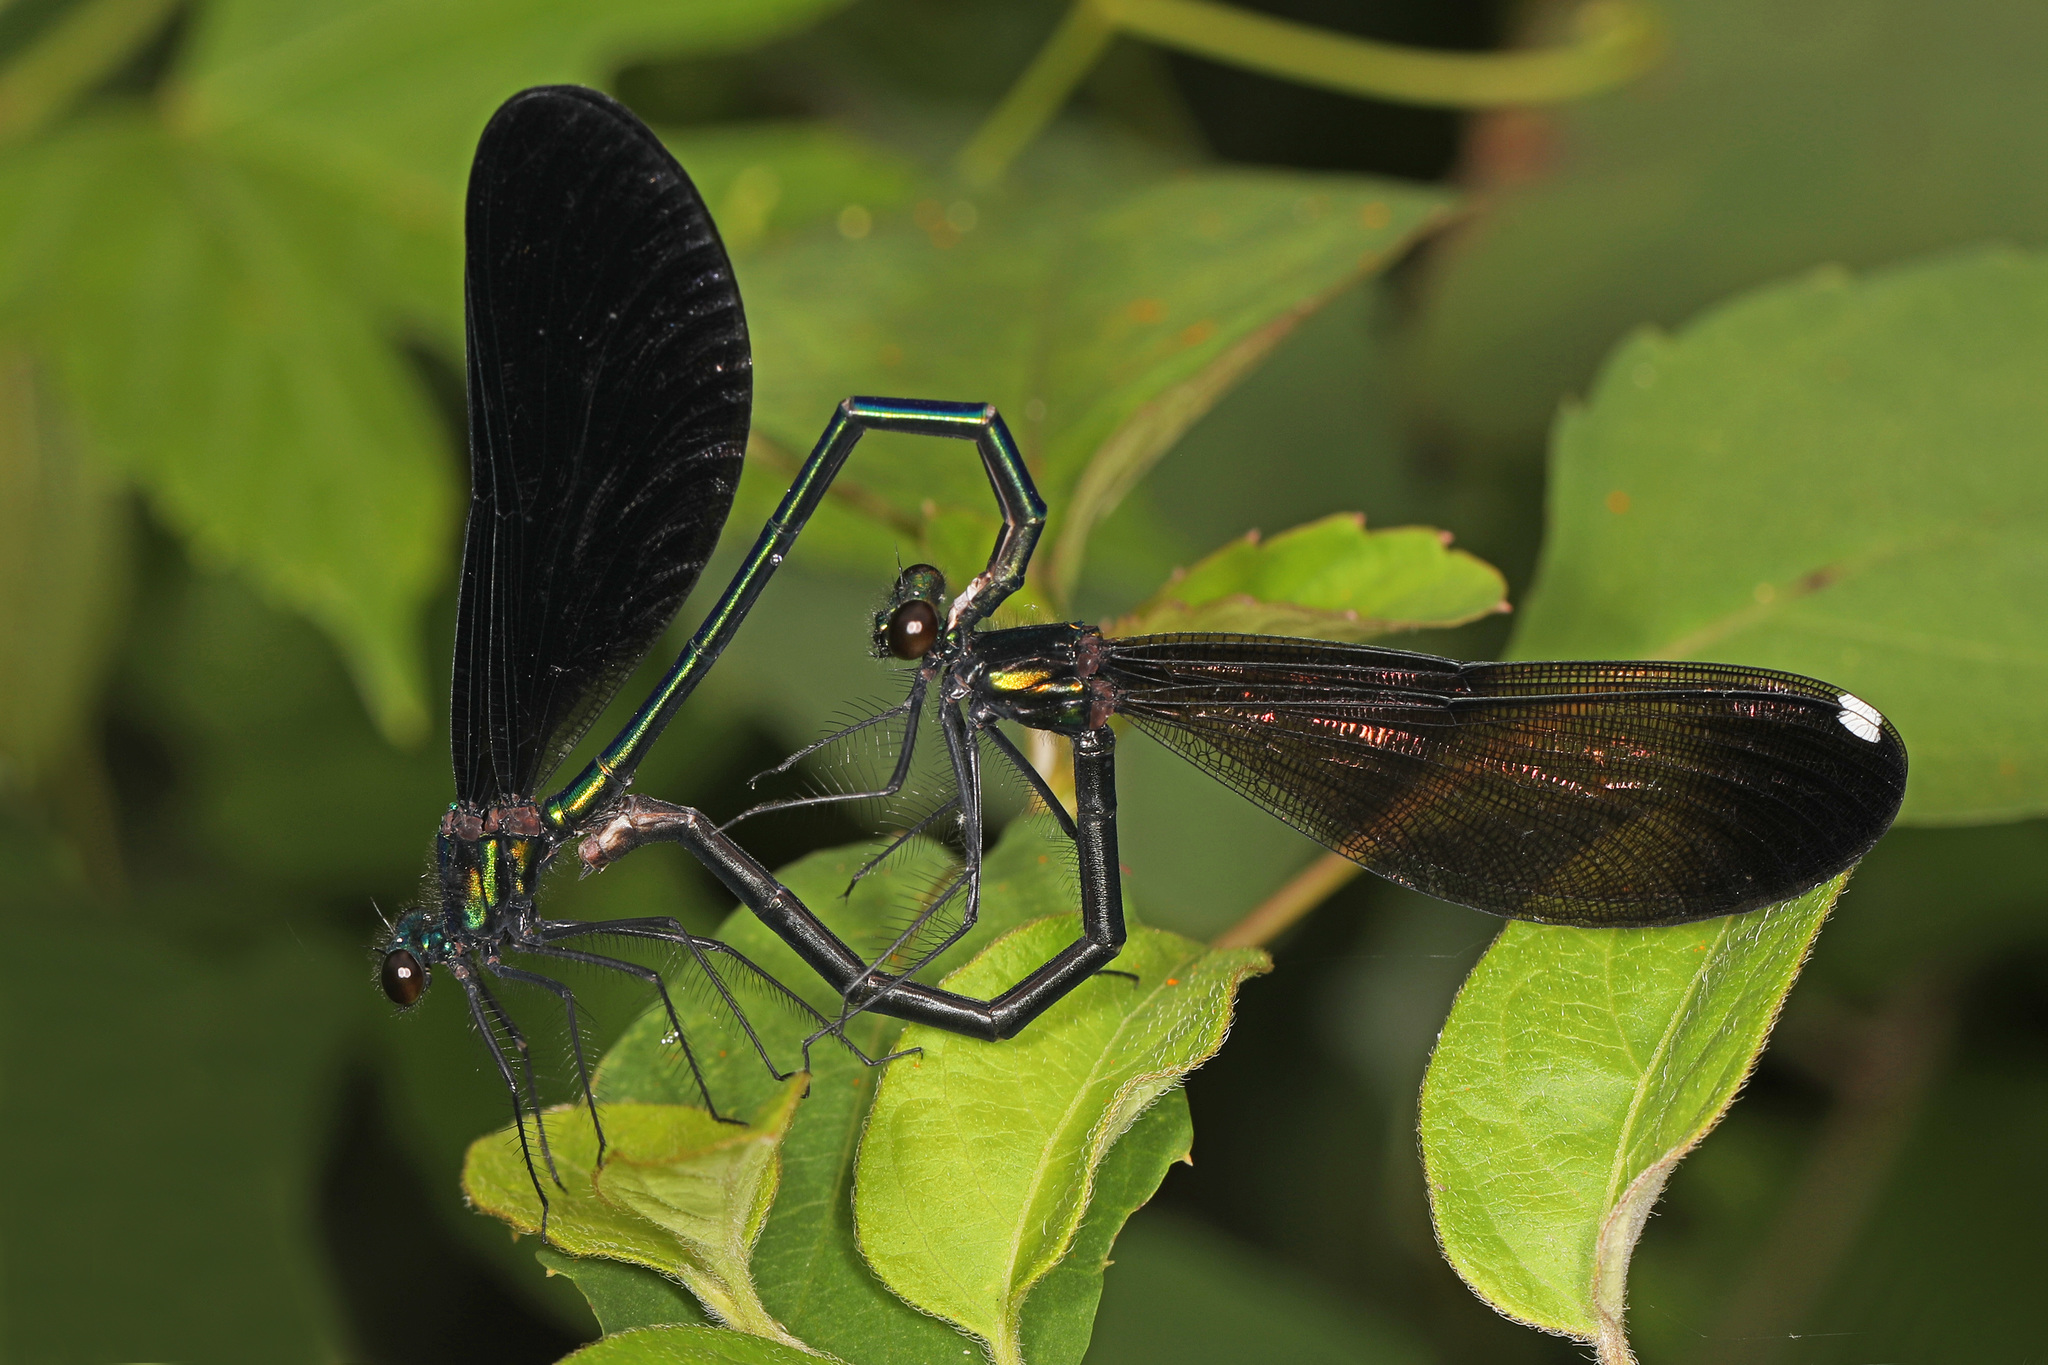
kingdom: Animalia
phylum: Arthropoda
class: Insecta
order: Odonata
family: Calopterygidae
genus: Calopteryx
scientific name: Calopteryx maculata
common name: Ebony jewelwing
